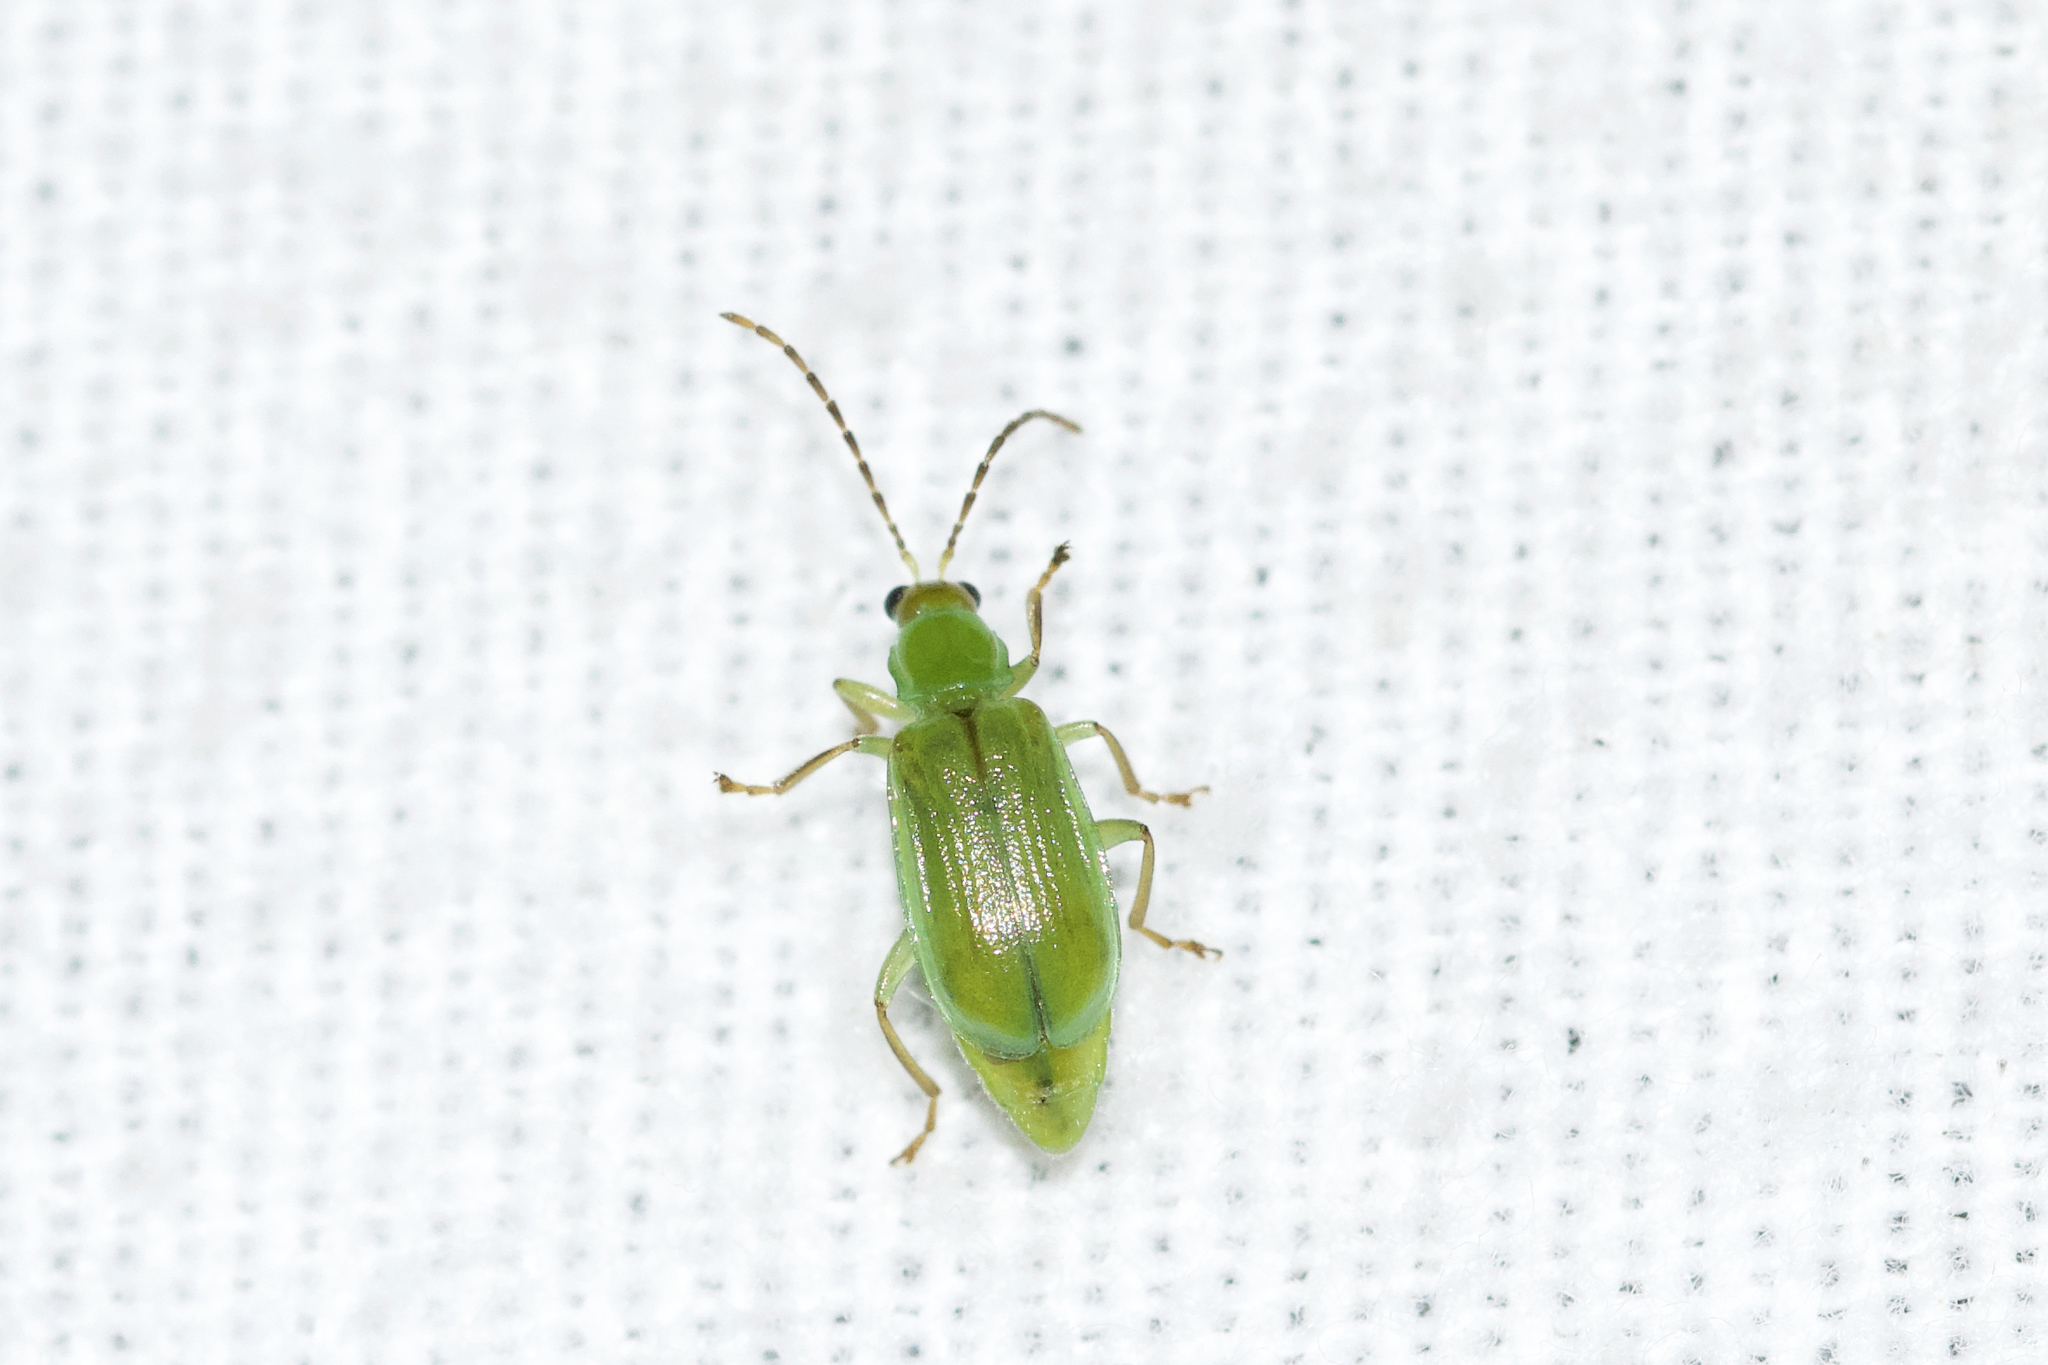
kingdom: Animalia
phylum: Arthropoda
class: Insecta
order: Coleoptera
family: Chrysomelidae
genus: Diabrotica
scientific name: Diabrotica barberi
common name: Northern corn rootworm
